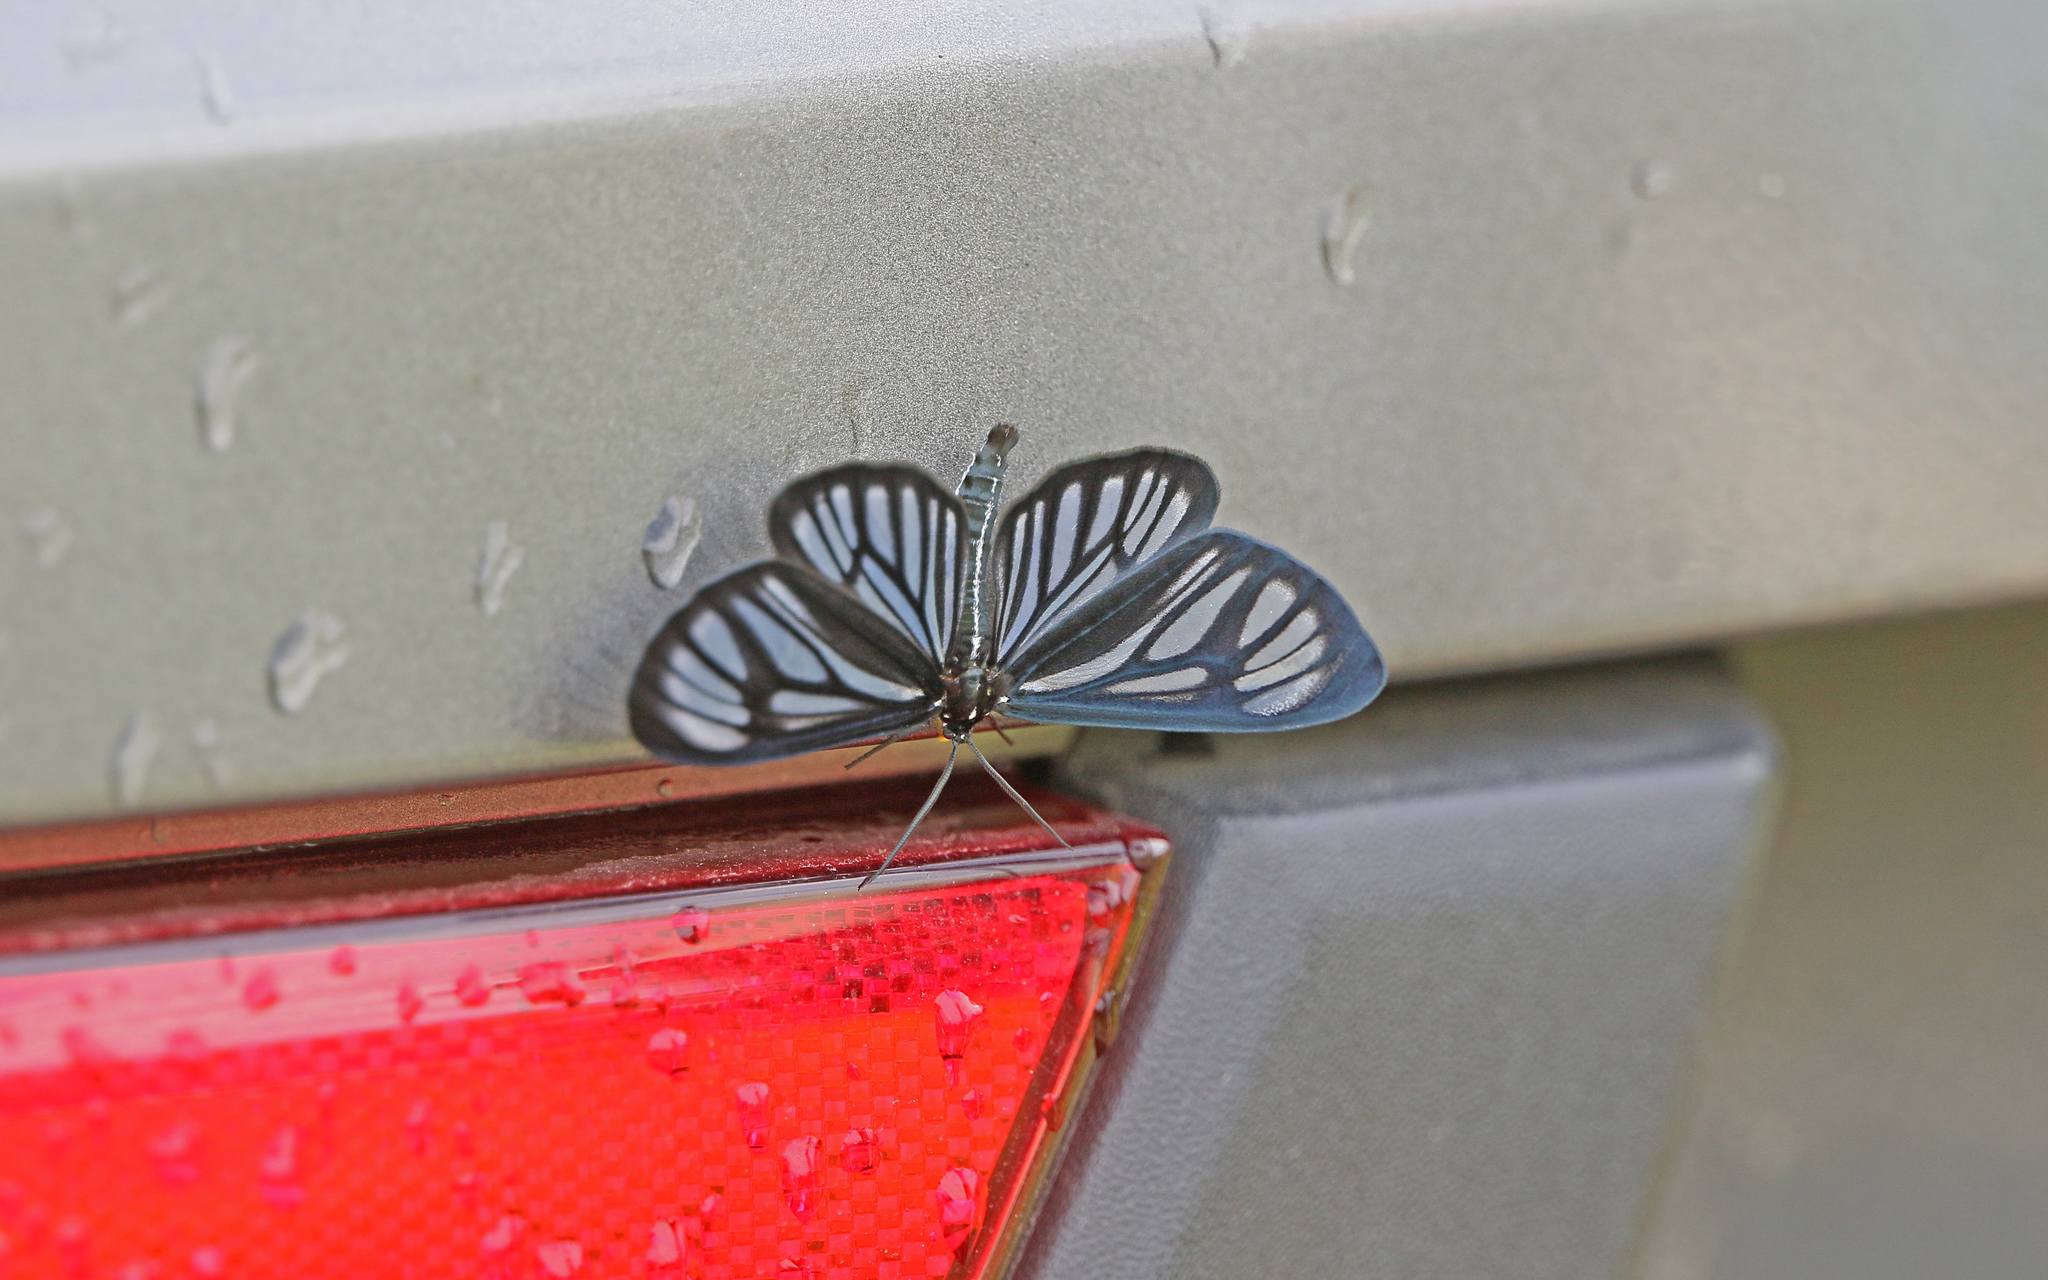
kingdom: Animalia
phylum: Arthropoda
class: Insecta
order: Lepidoptera
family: Geometridae
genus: Gonora
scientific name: Gonora hyelosioides
